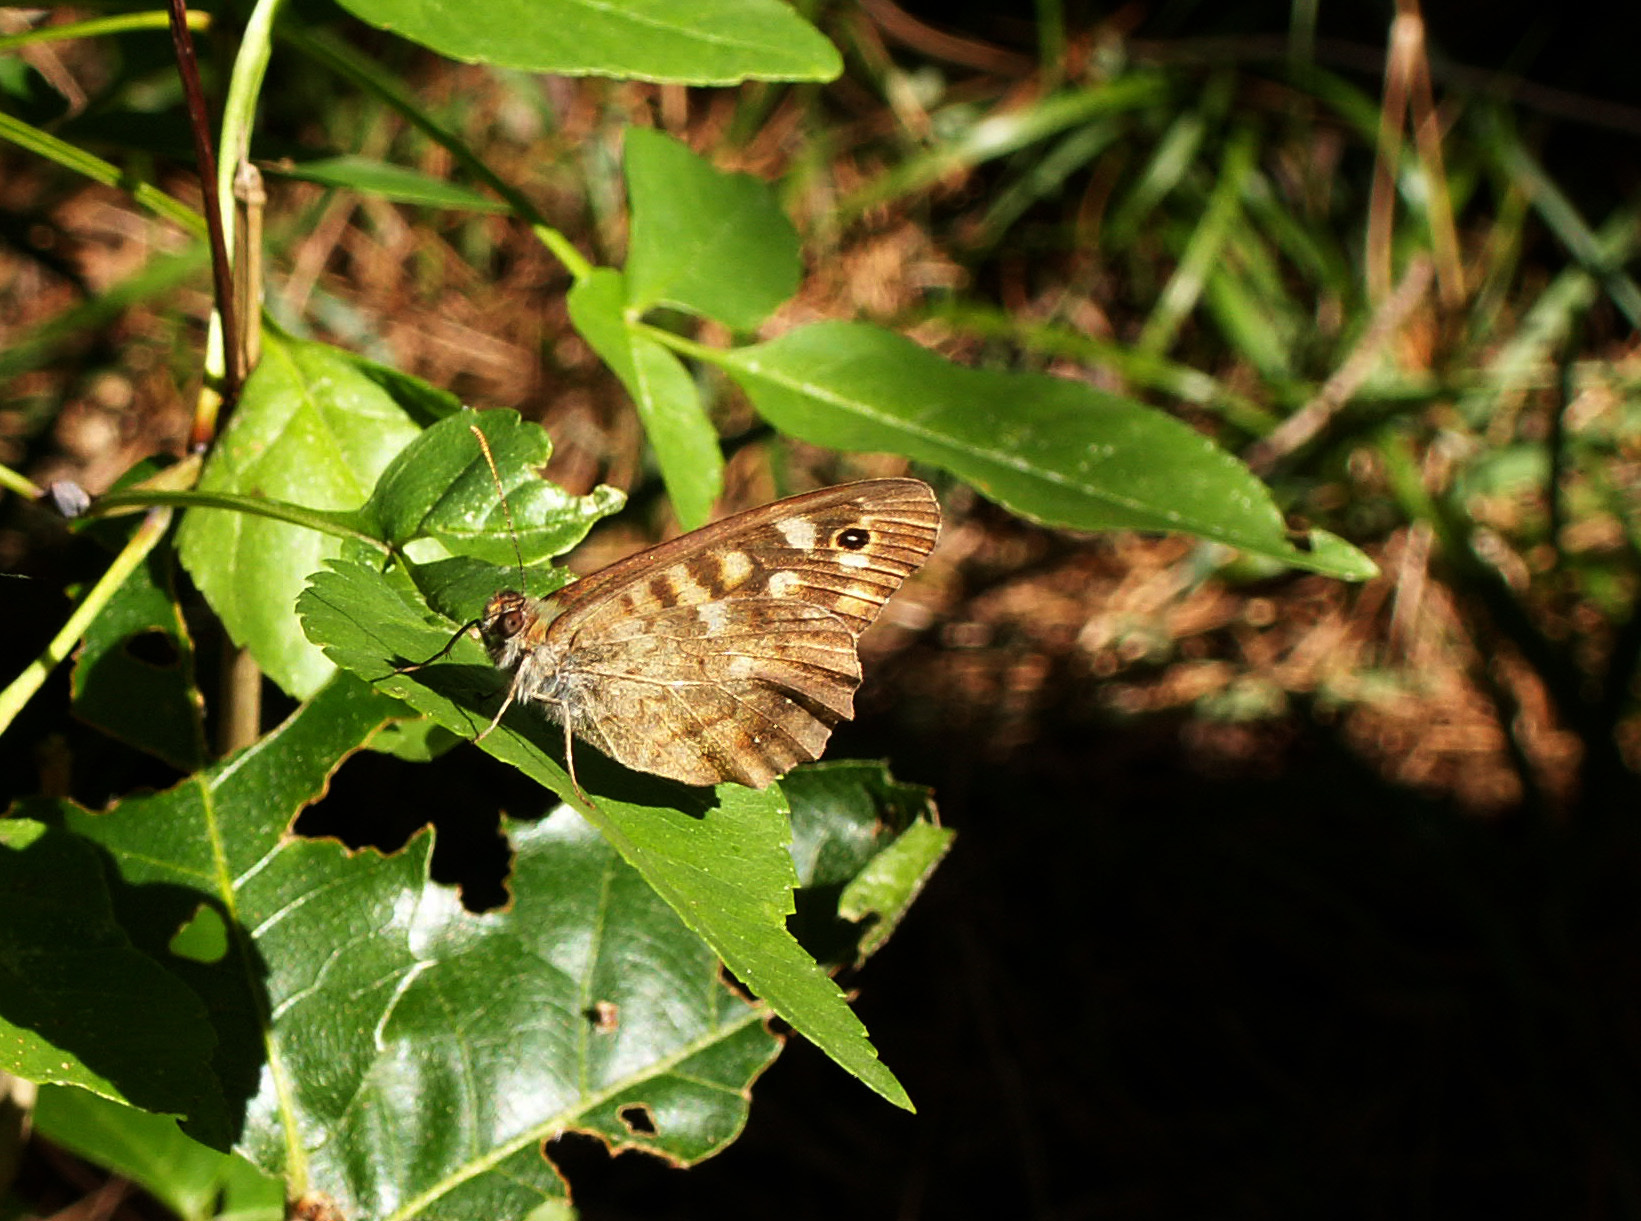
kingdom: Animalia
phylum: Arthropoda
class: Insecta
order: Lepidoptera
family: Nymphalidae
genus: Pararge
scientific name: Pararge aegeria
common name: Speckled wood
